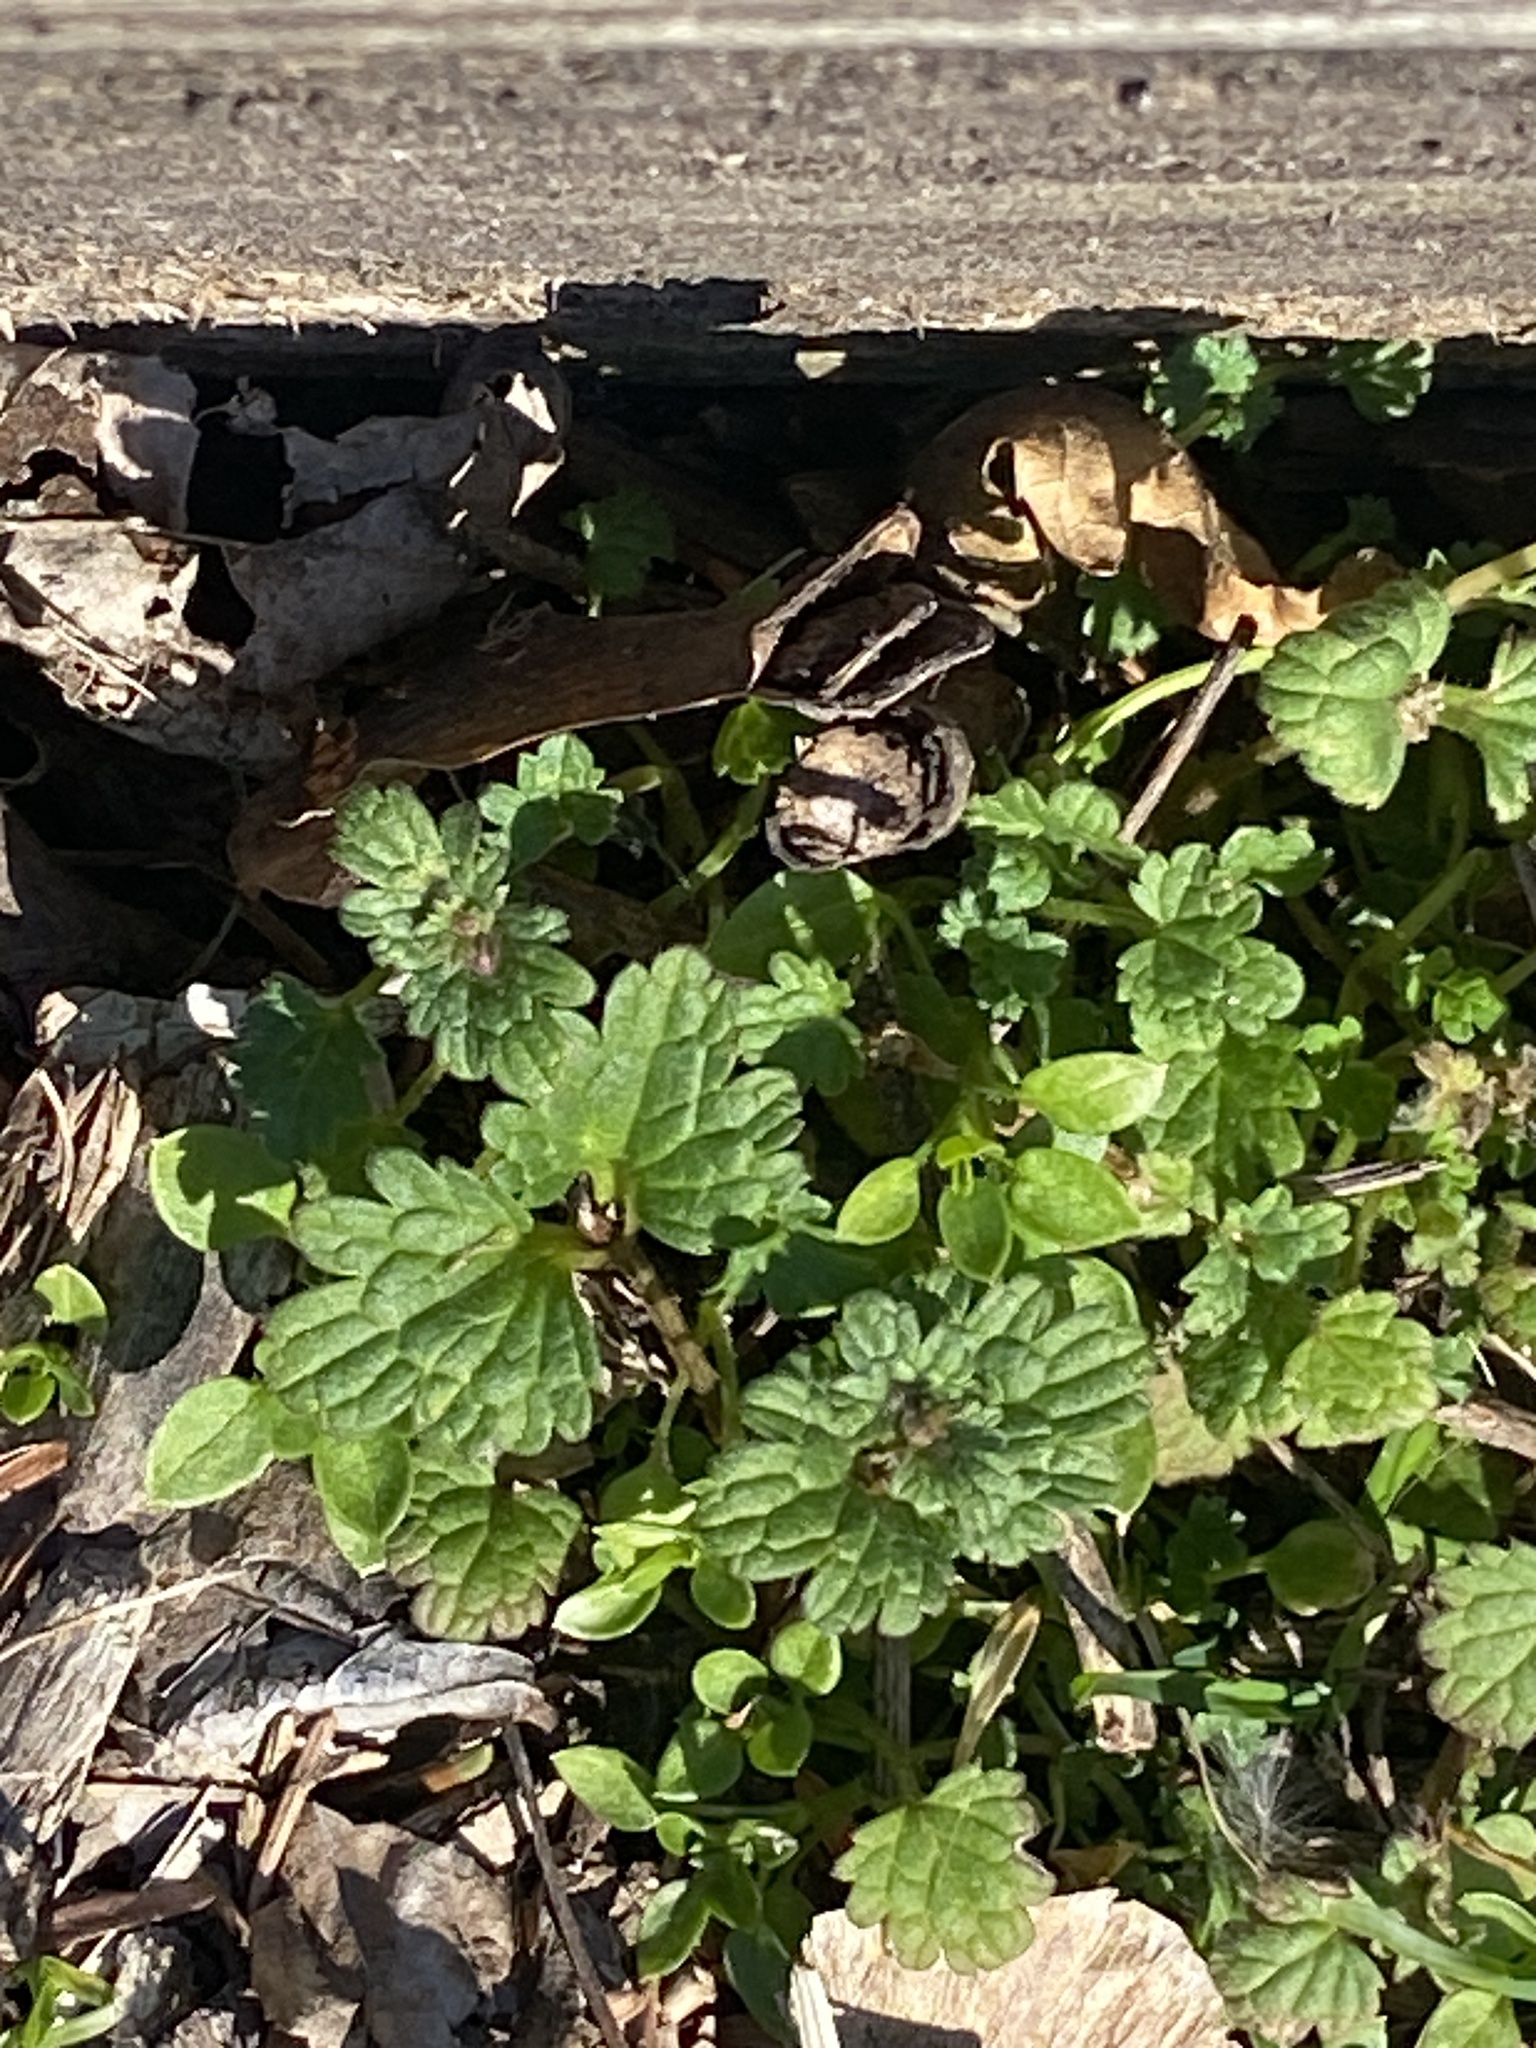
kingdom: Plantae
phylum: Tracheophyta
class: Magnoliopsida
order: Lamiales
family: Lamiaceae
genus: Lamium
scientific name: Lamium amplexicaule
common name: Henbit dead-nettle
